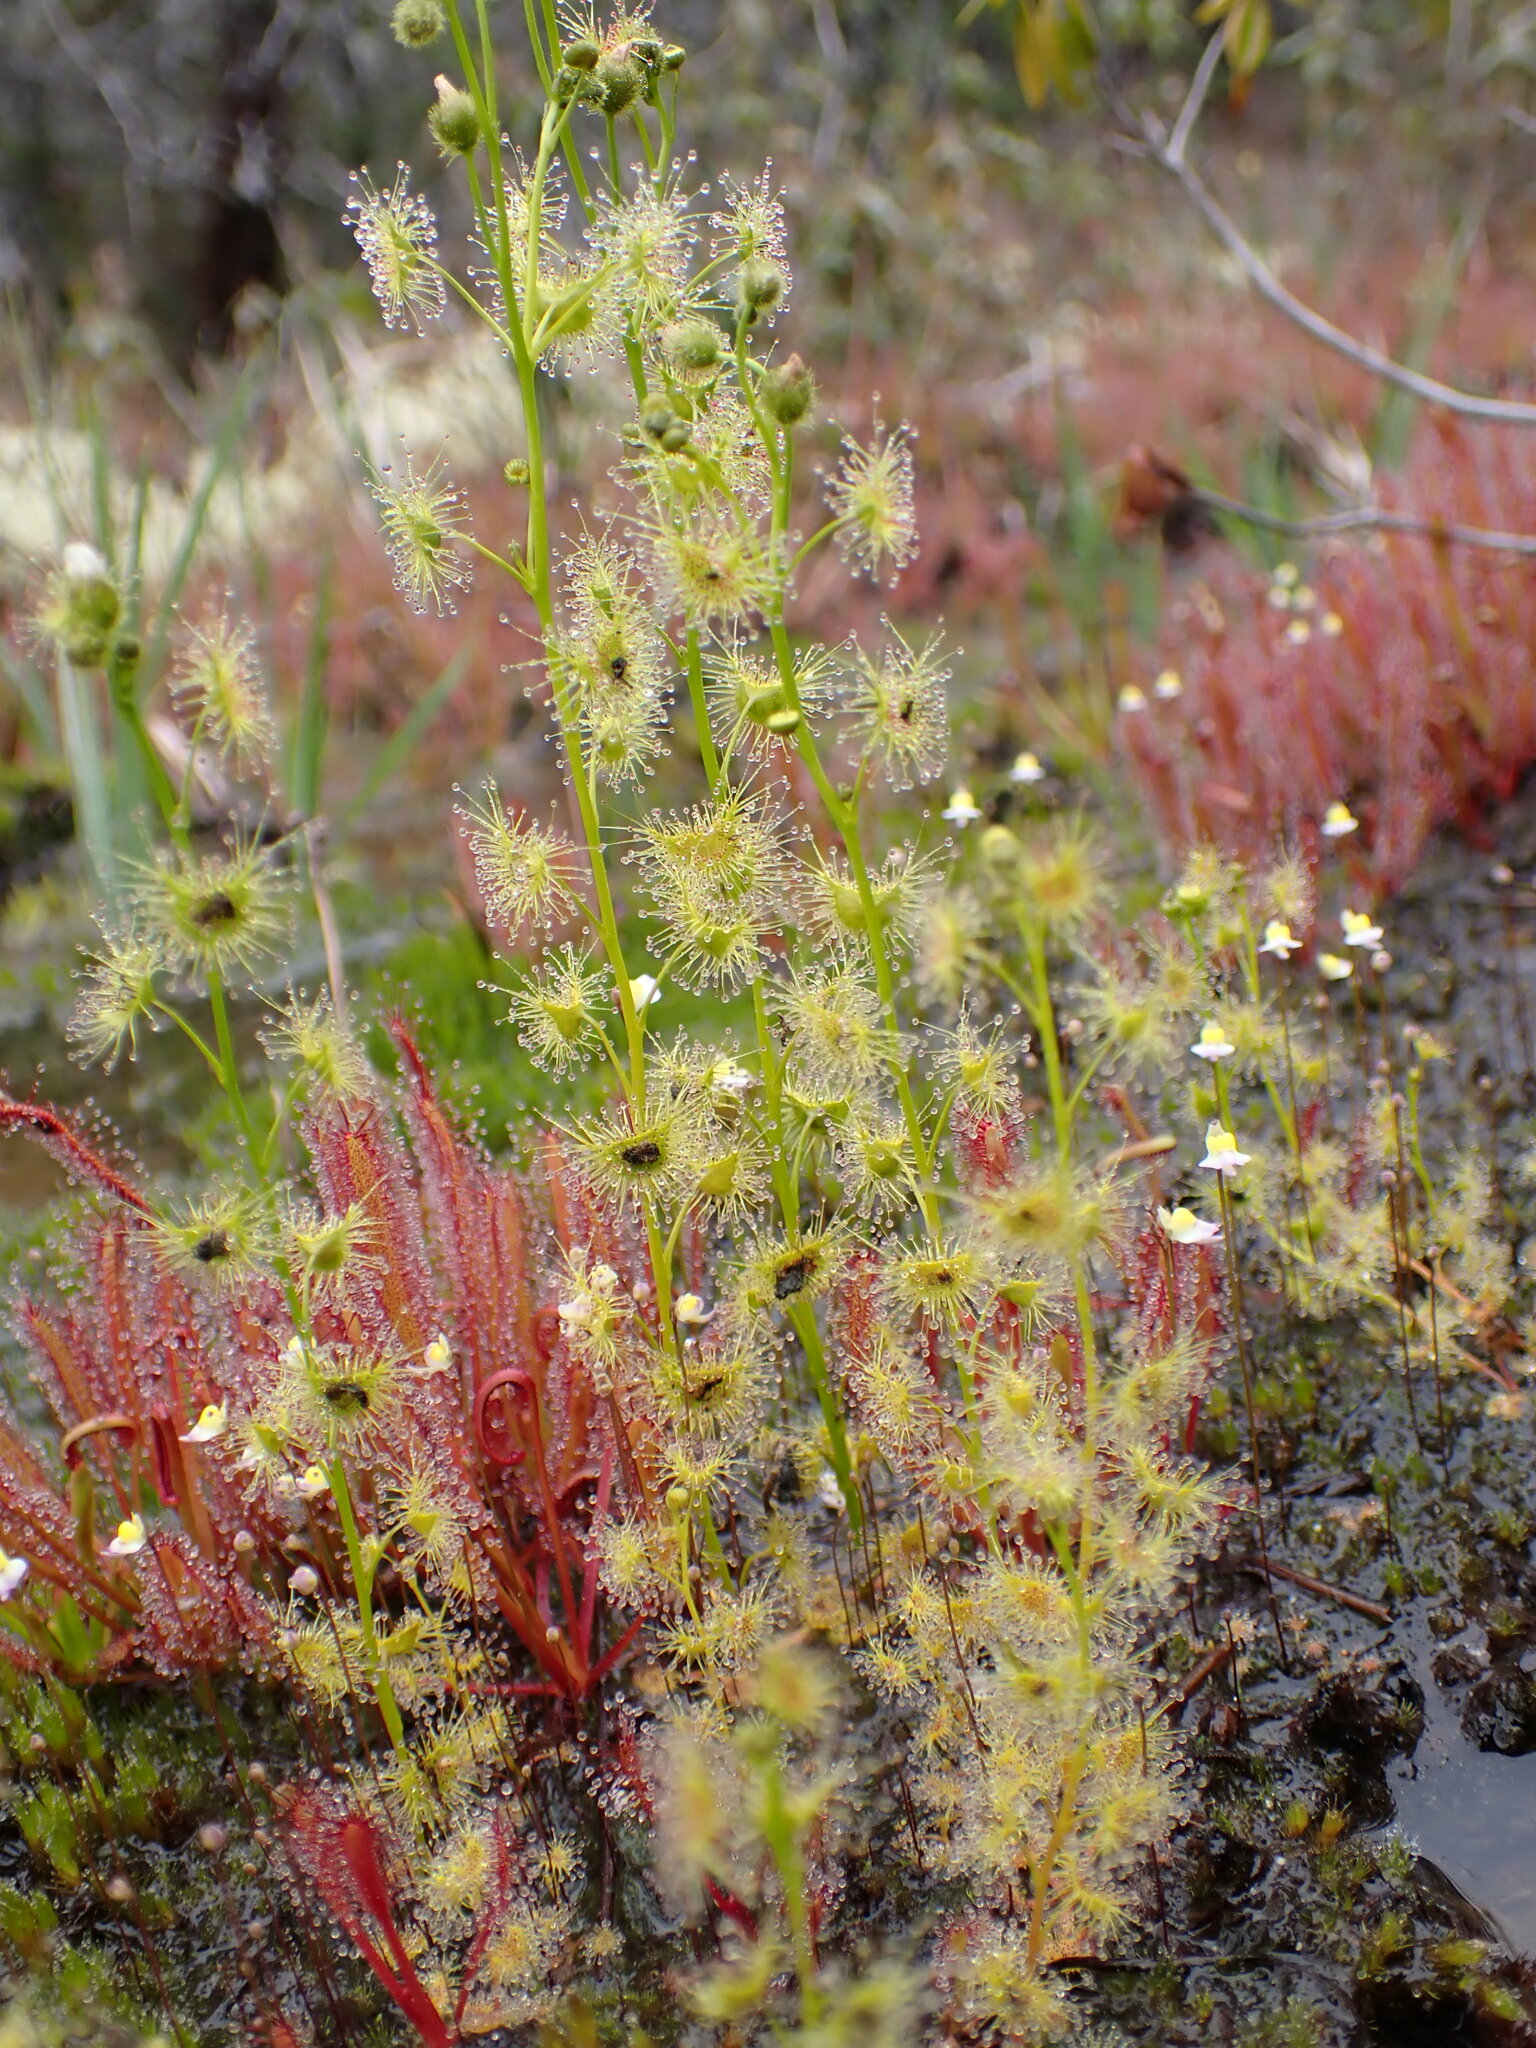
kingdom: Plantae
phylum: Tracheophyta
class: Magnoliopsida
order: Caryophyllales
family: Droseraceae
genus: Drosera
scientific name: Drosera gunniana
